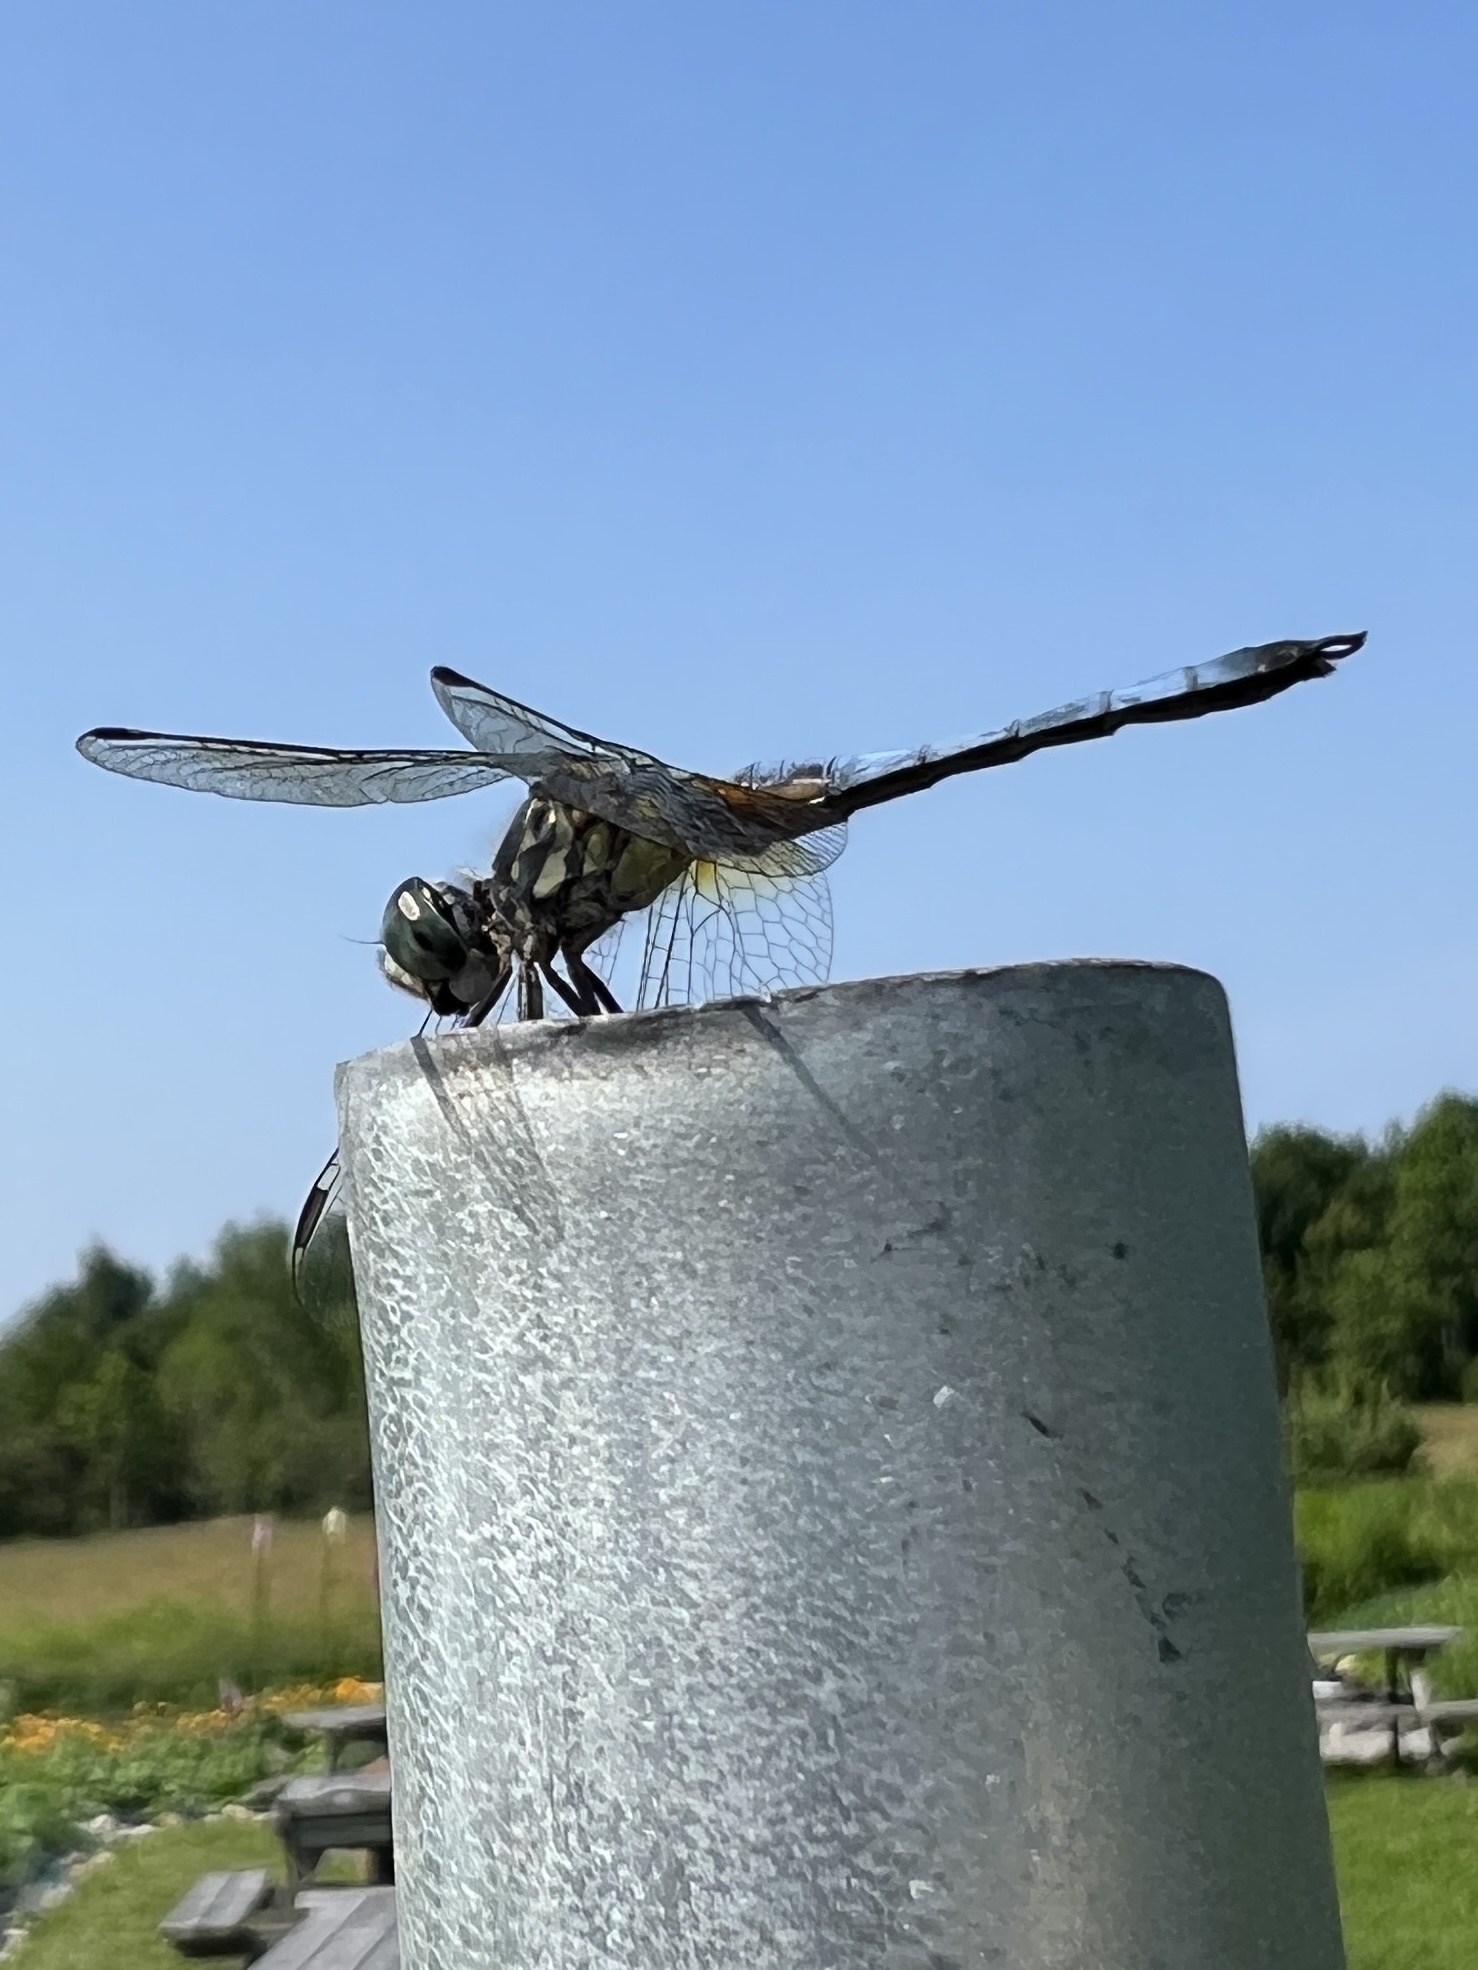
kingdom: Animalia
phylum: Arthropoda
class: Insecta
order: Odonata
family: Libellulidae
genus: Pachydiplax
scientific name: Pachydiplax longipennis
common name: Blue dasher
